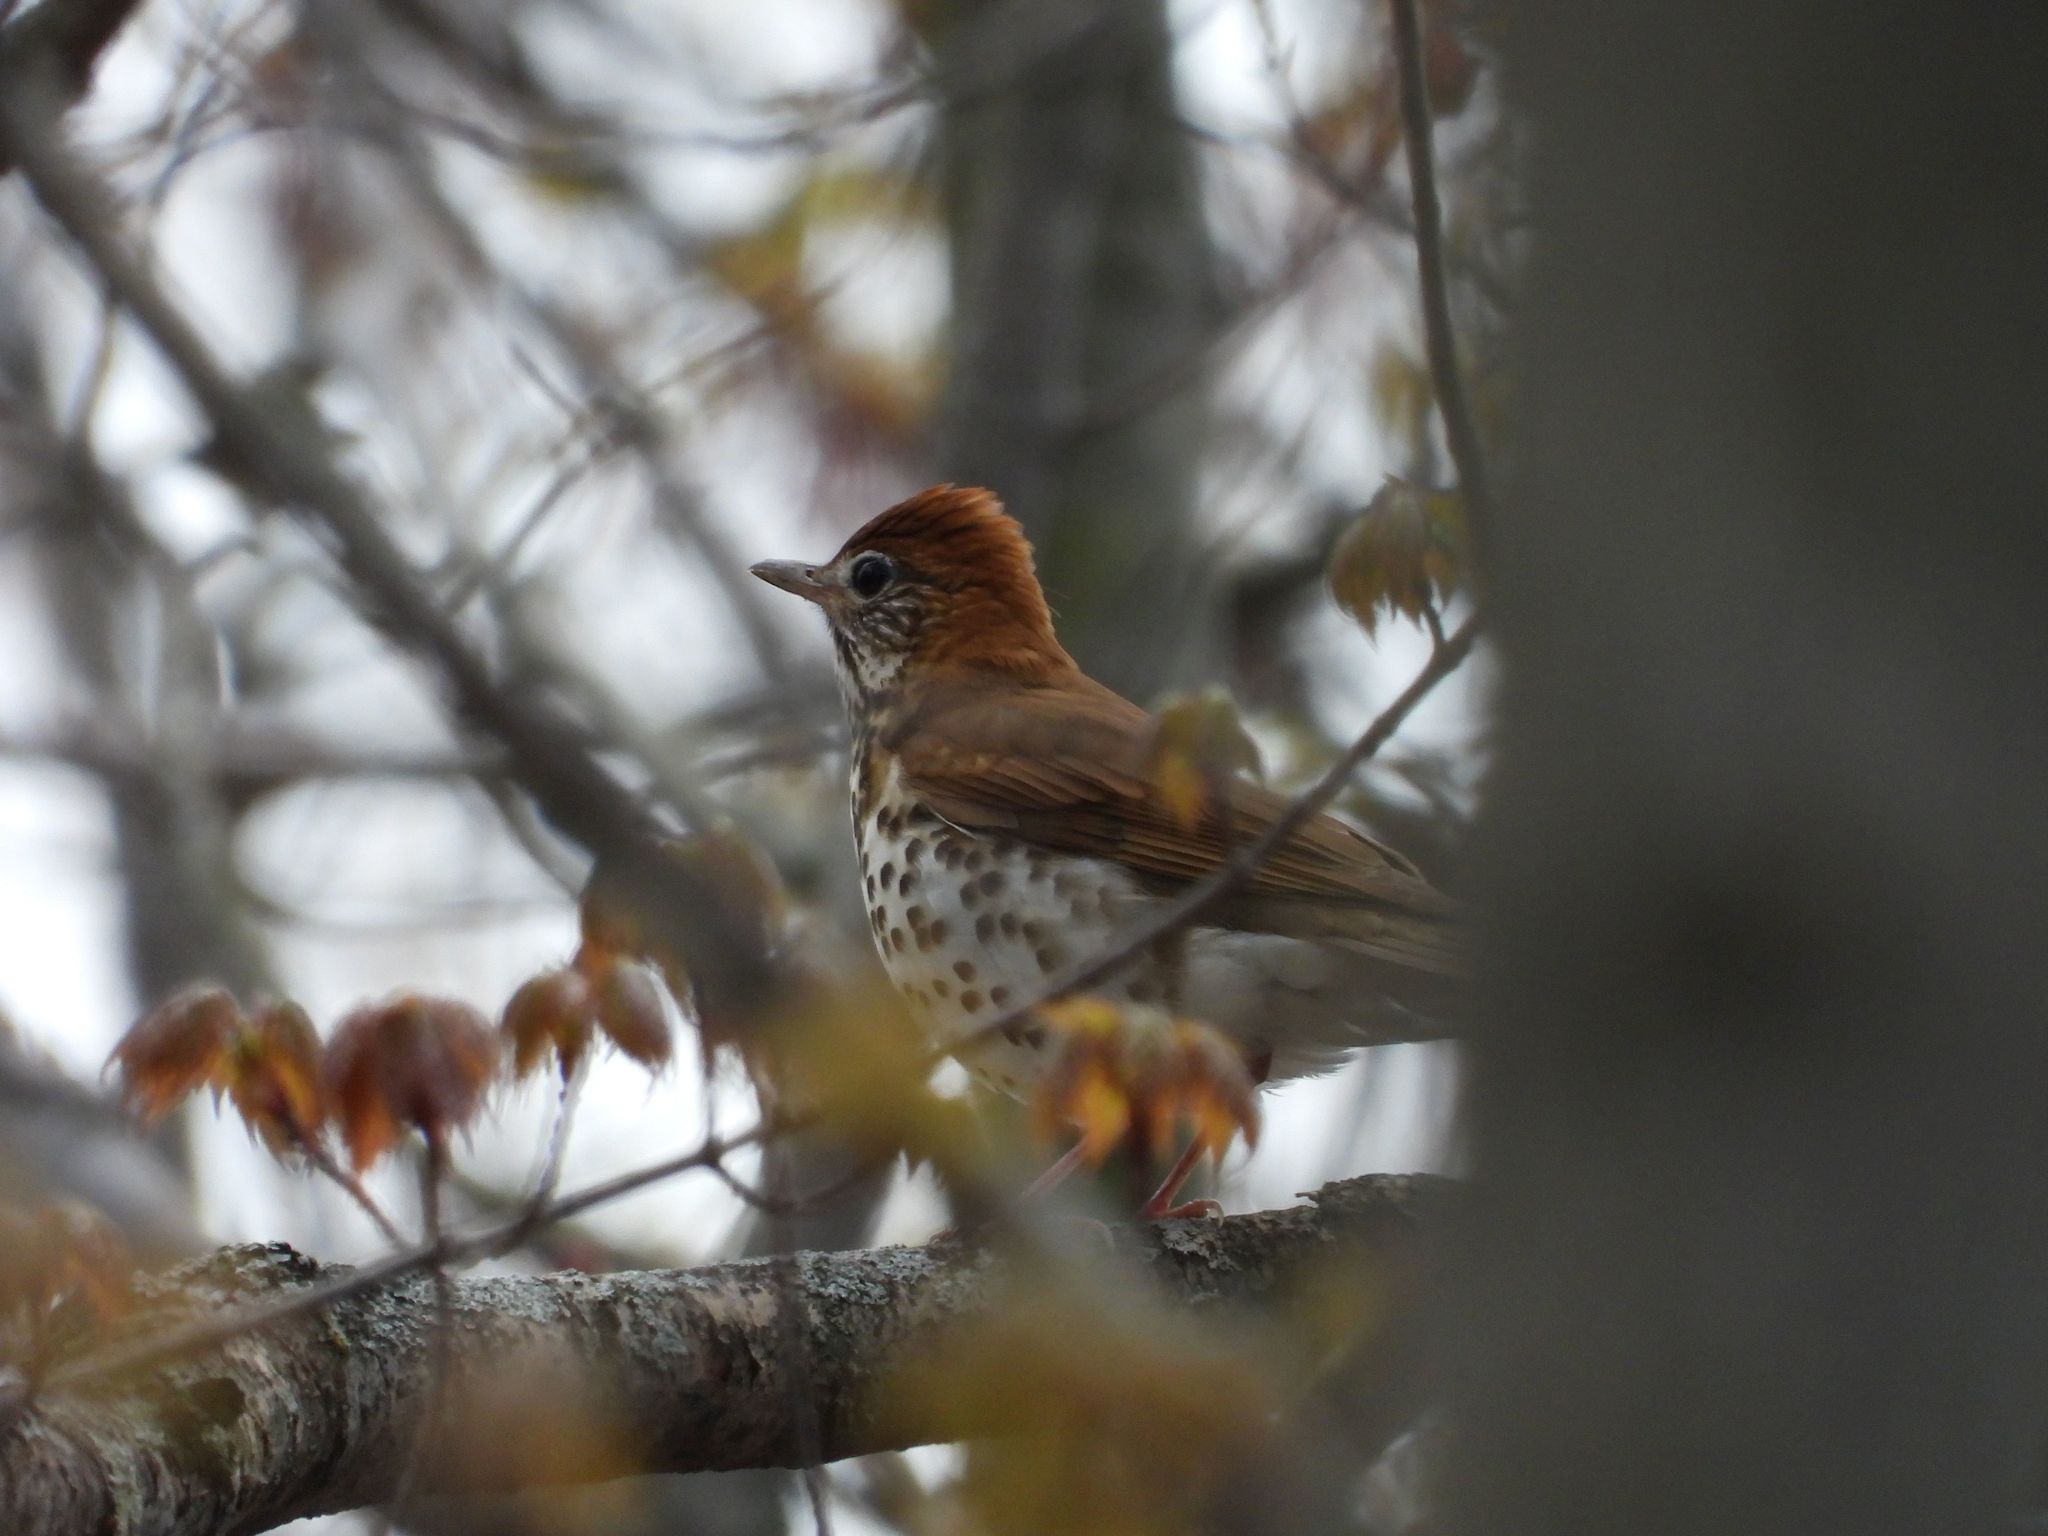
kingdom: Animalia
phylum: Chordata
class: Aves
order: Passeriformes
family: Turdidae
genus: Hylocichla
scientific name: Hylocichla mustelina
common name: Wood thrush
